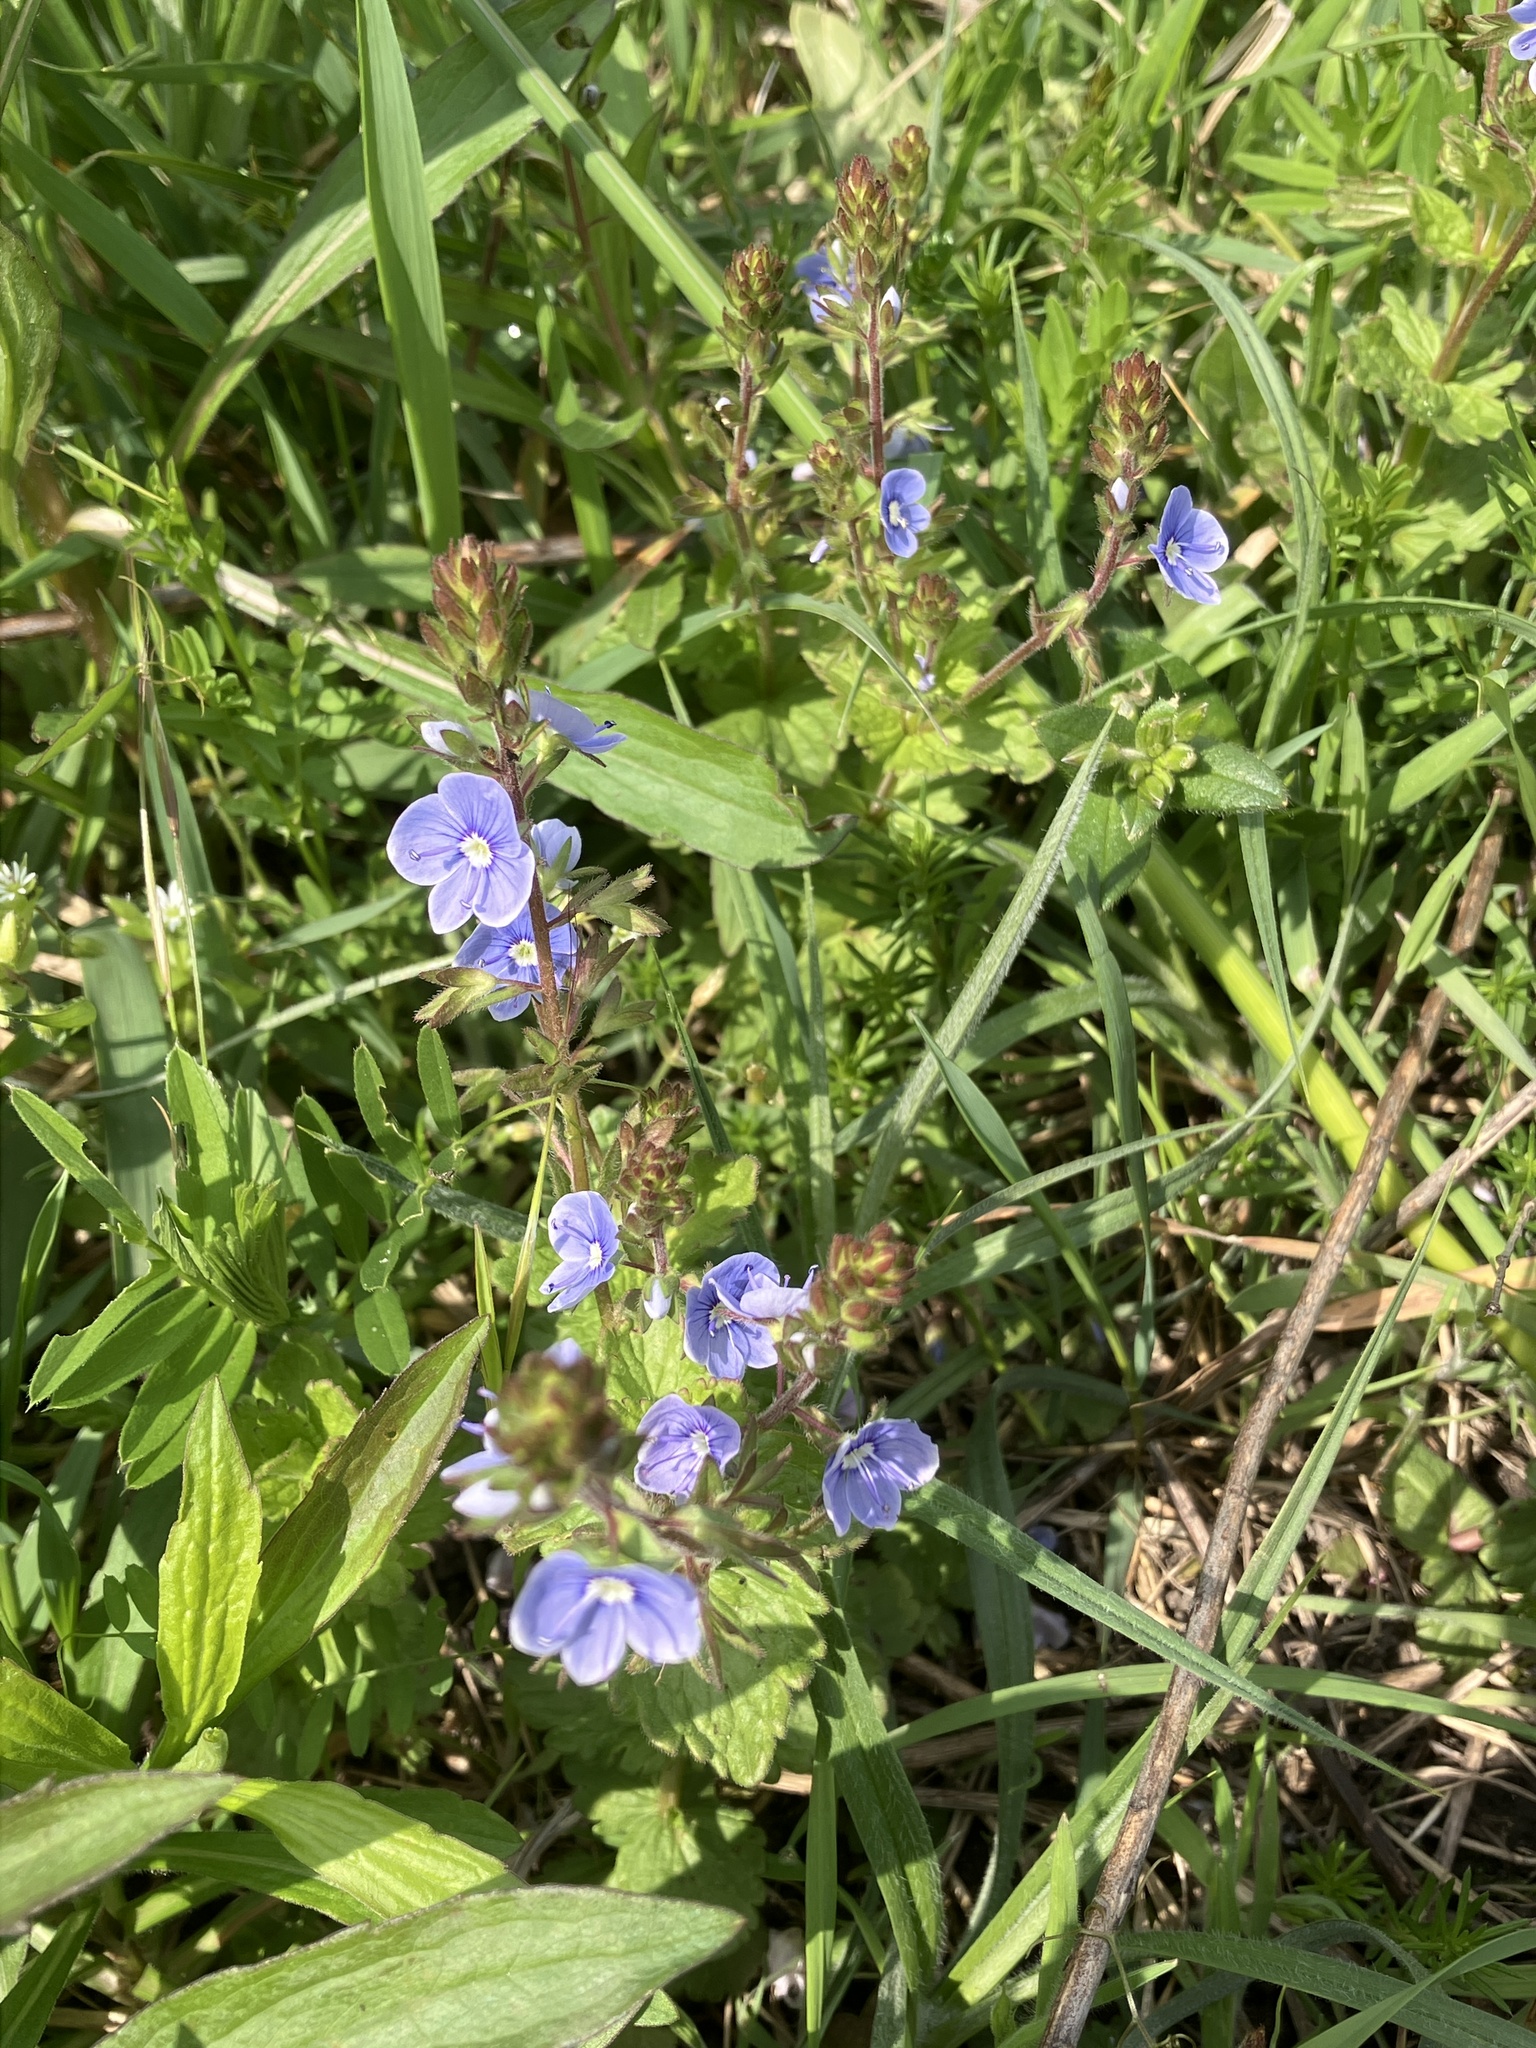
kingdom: Plantae
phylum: Tracheophyta
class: Magnoliopsida
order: Lamiales
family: Plantaginaceae
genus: Veronica
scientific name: Veronica chamaedrys
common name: Germander speedwell
